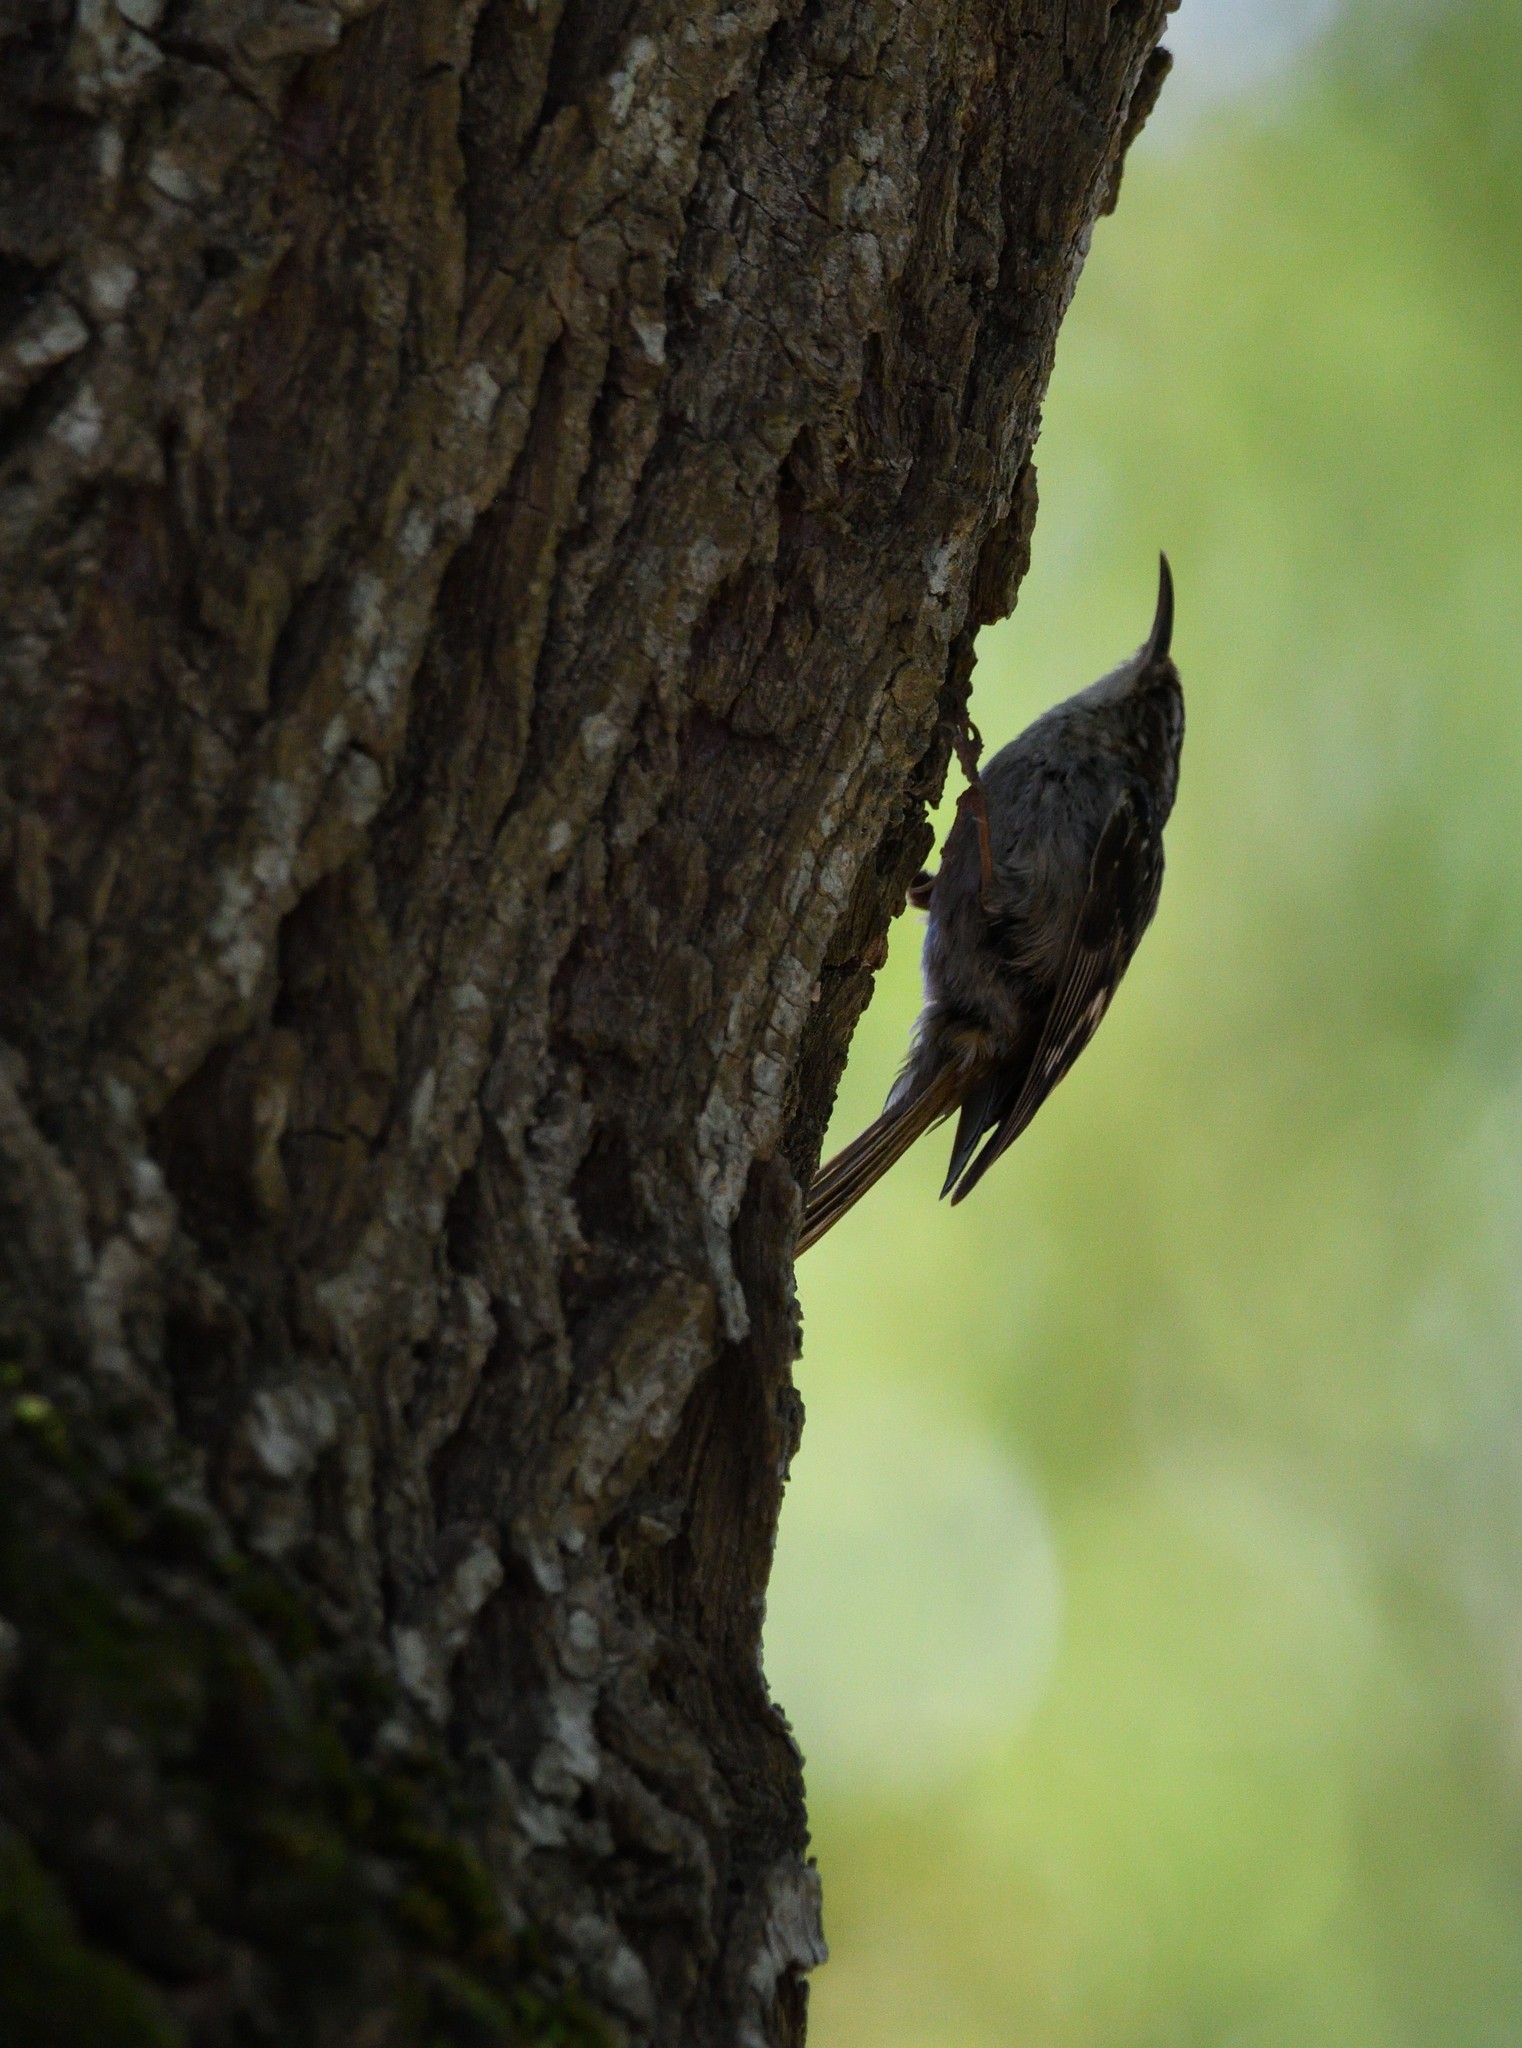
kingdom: Animalia
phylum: Chordata
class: Aves
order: Passeriformes
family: Certhiidae
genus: Certhia
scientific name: Certhia brachydactyla
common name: Short-toed treecreeper
